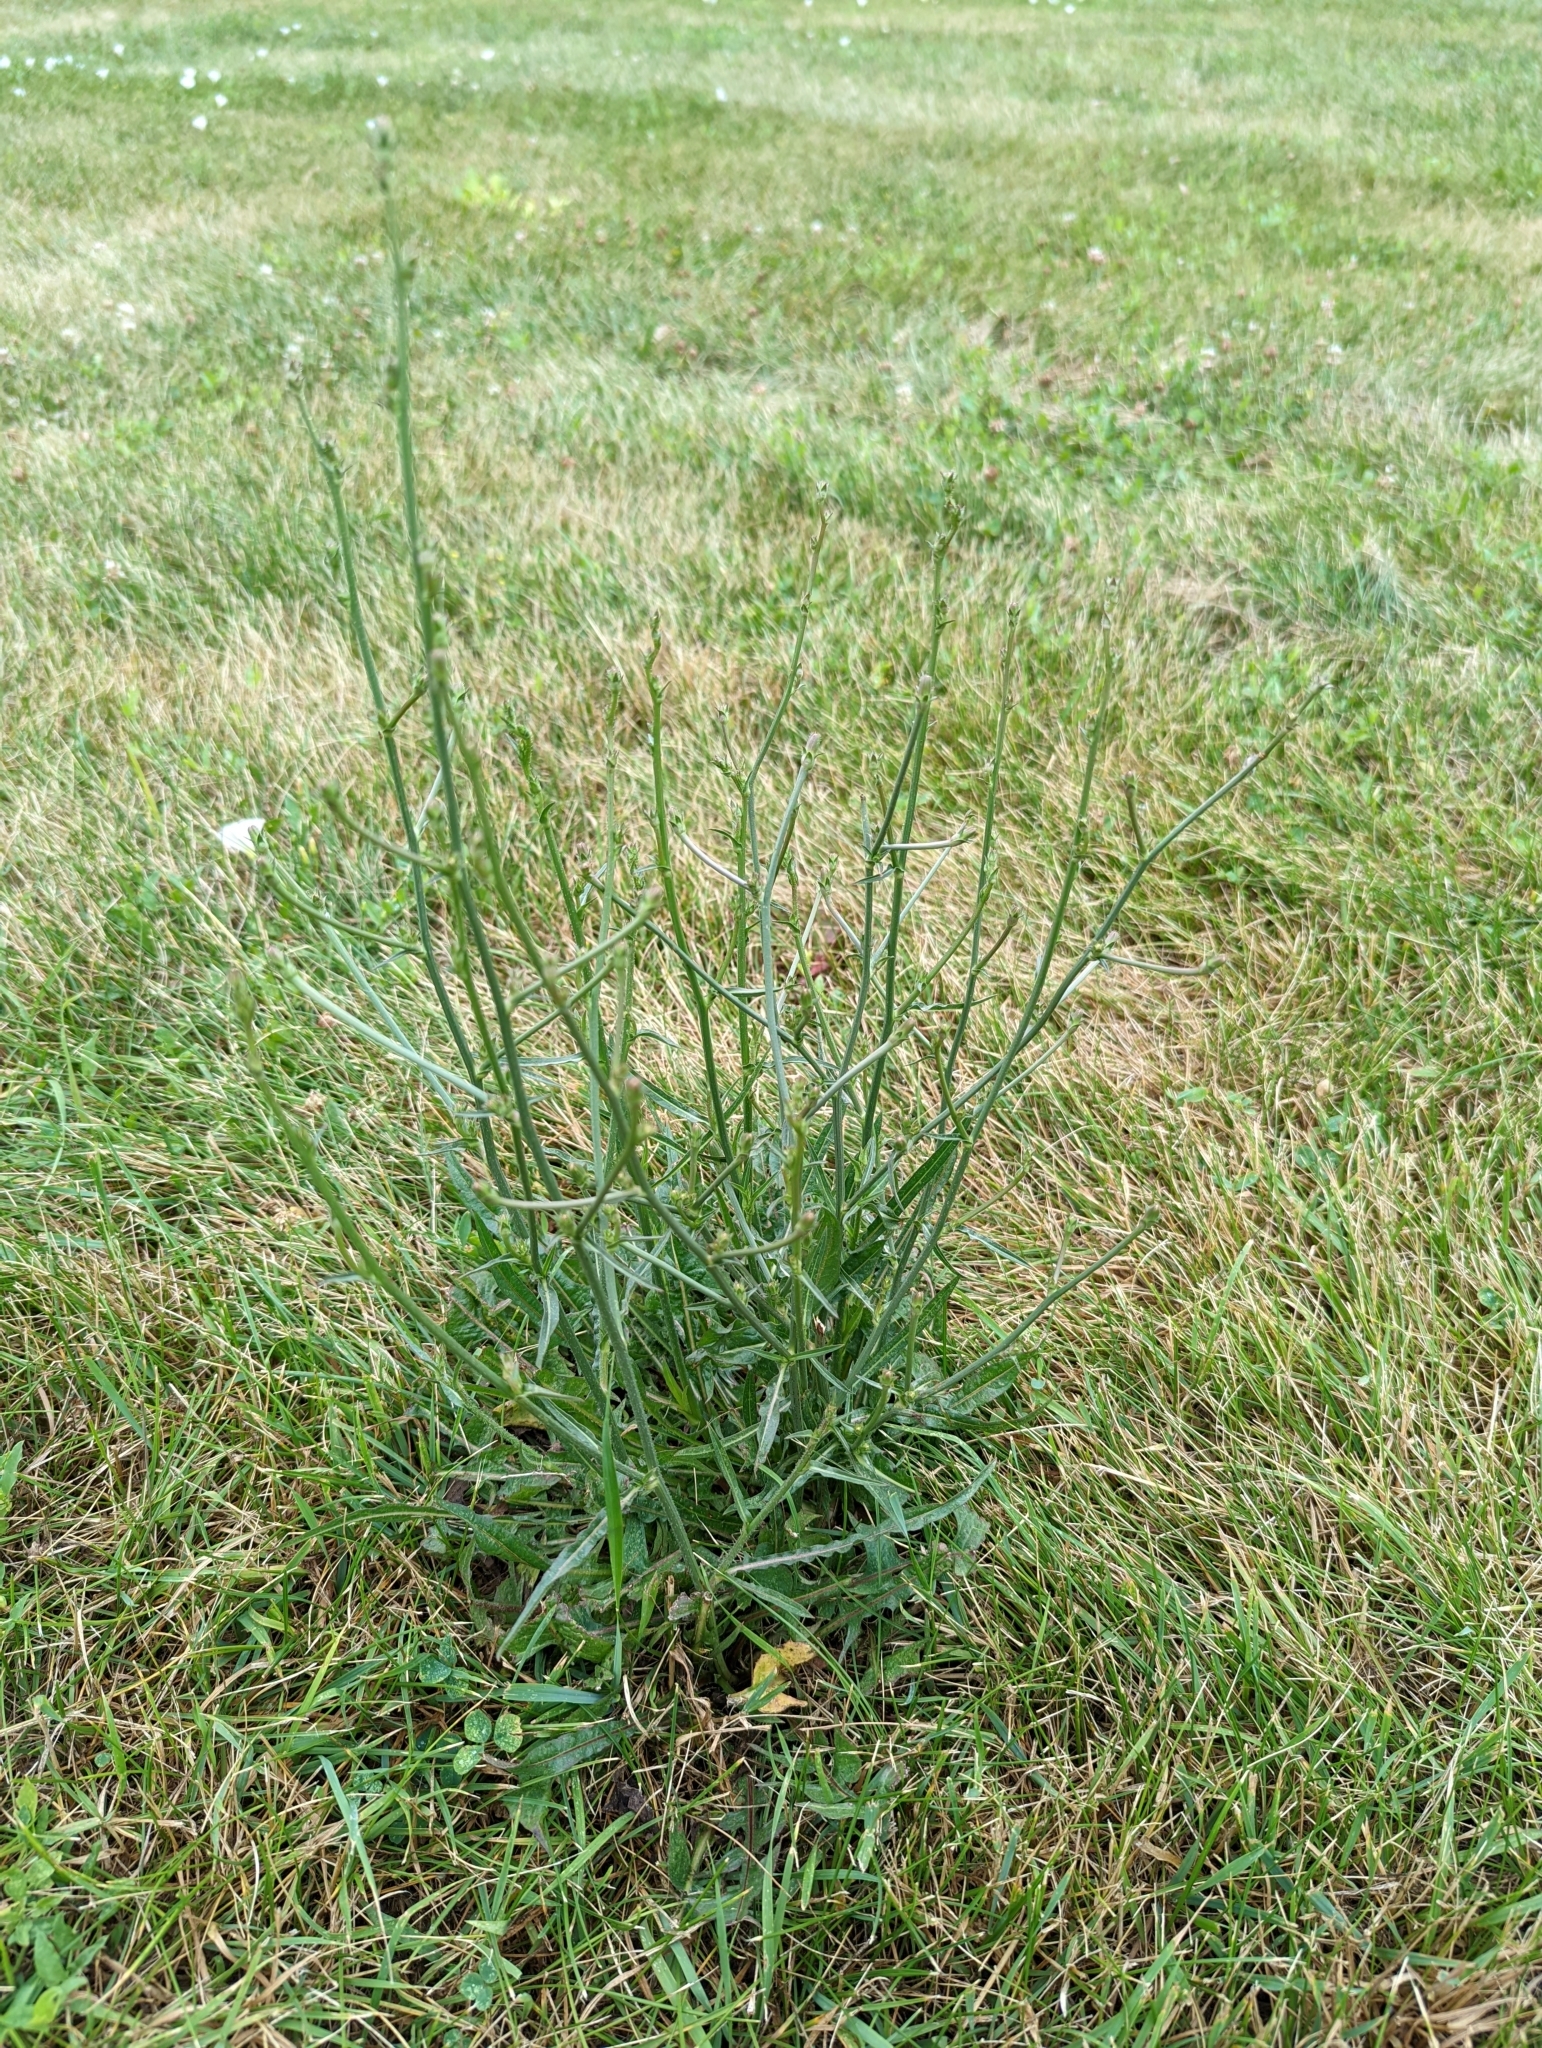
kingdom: Plantae
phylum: Tracheophyta
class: Magnoliopsida
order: Asterales
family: Asteraceae
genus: Cichorium
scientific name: Cichorium intybus
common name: Chicory
